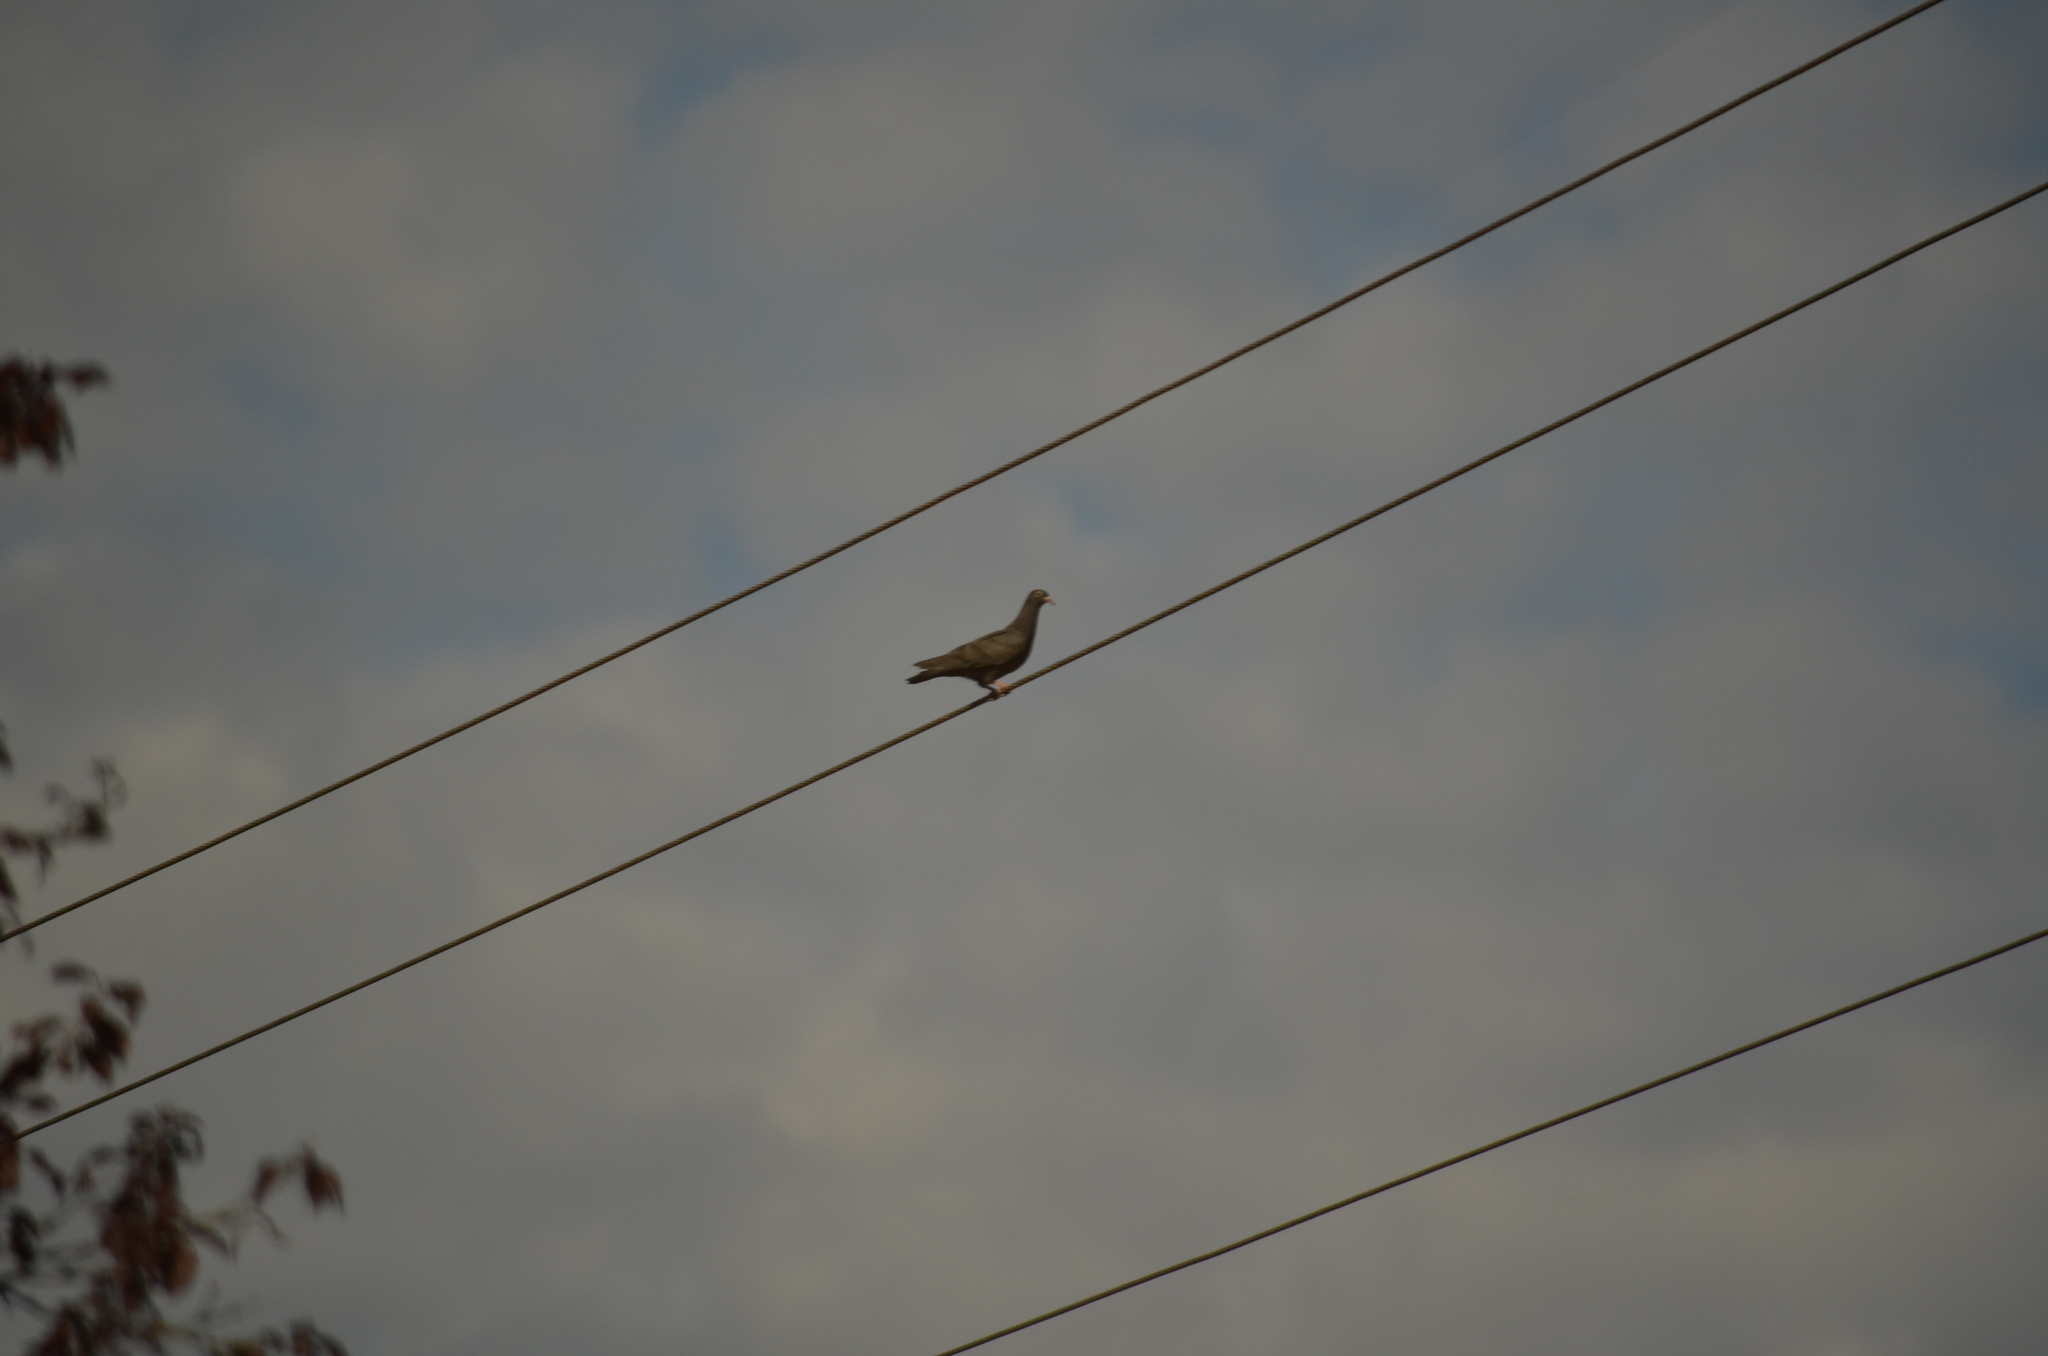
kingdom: Animalia
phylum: Chordata
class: Aves
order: Columbiformes
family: Columbidae
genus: Columba
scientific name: Columba livia
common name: Rock pigeon
